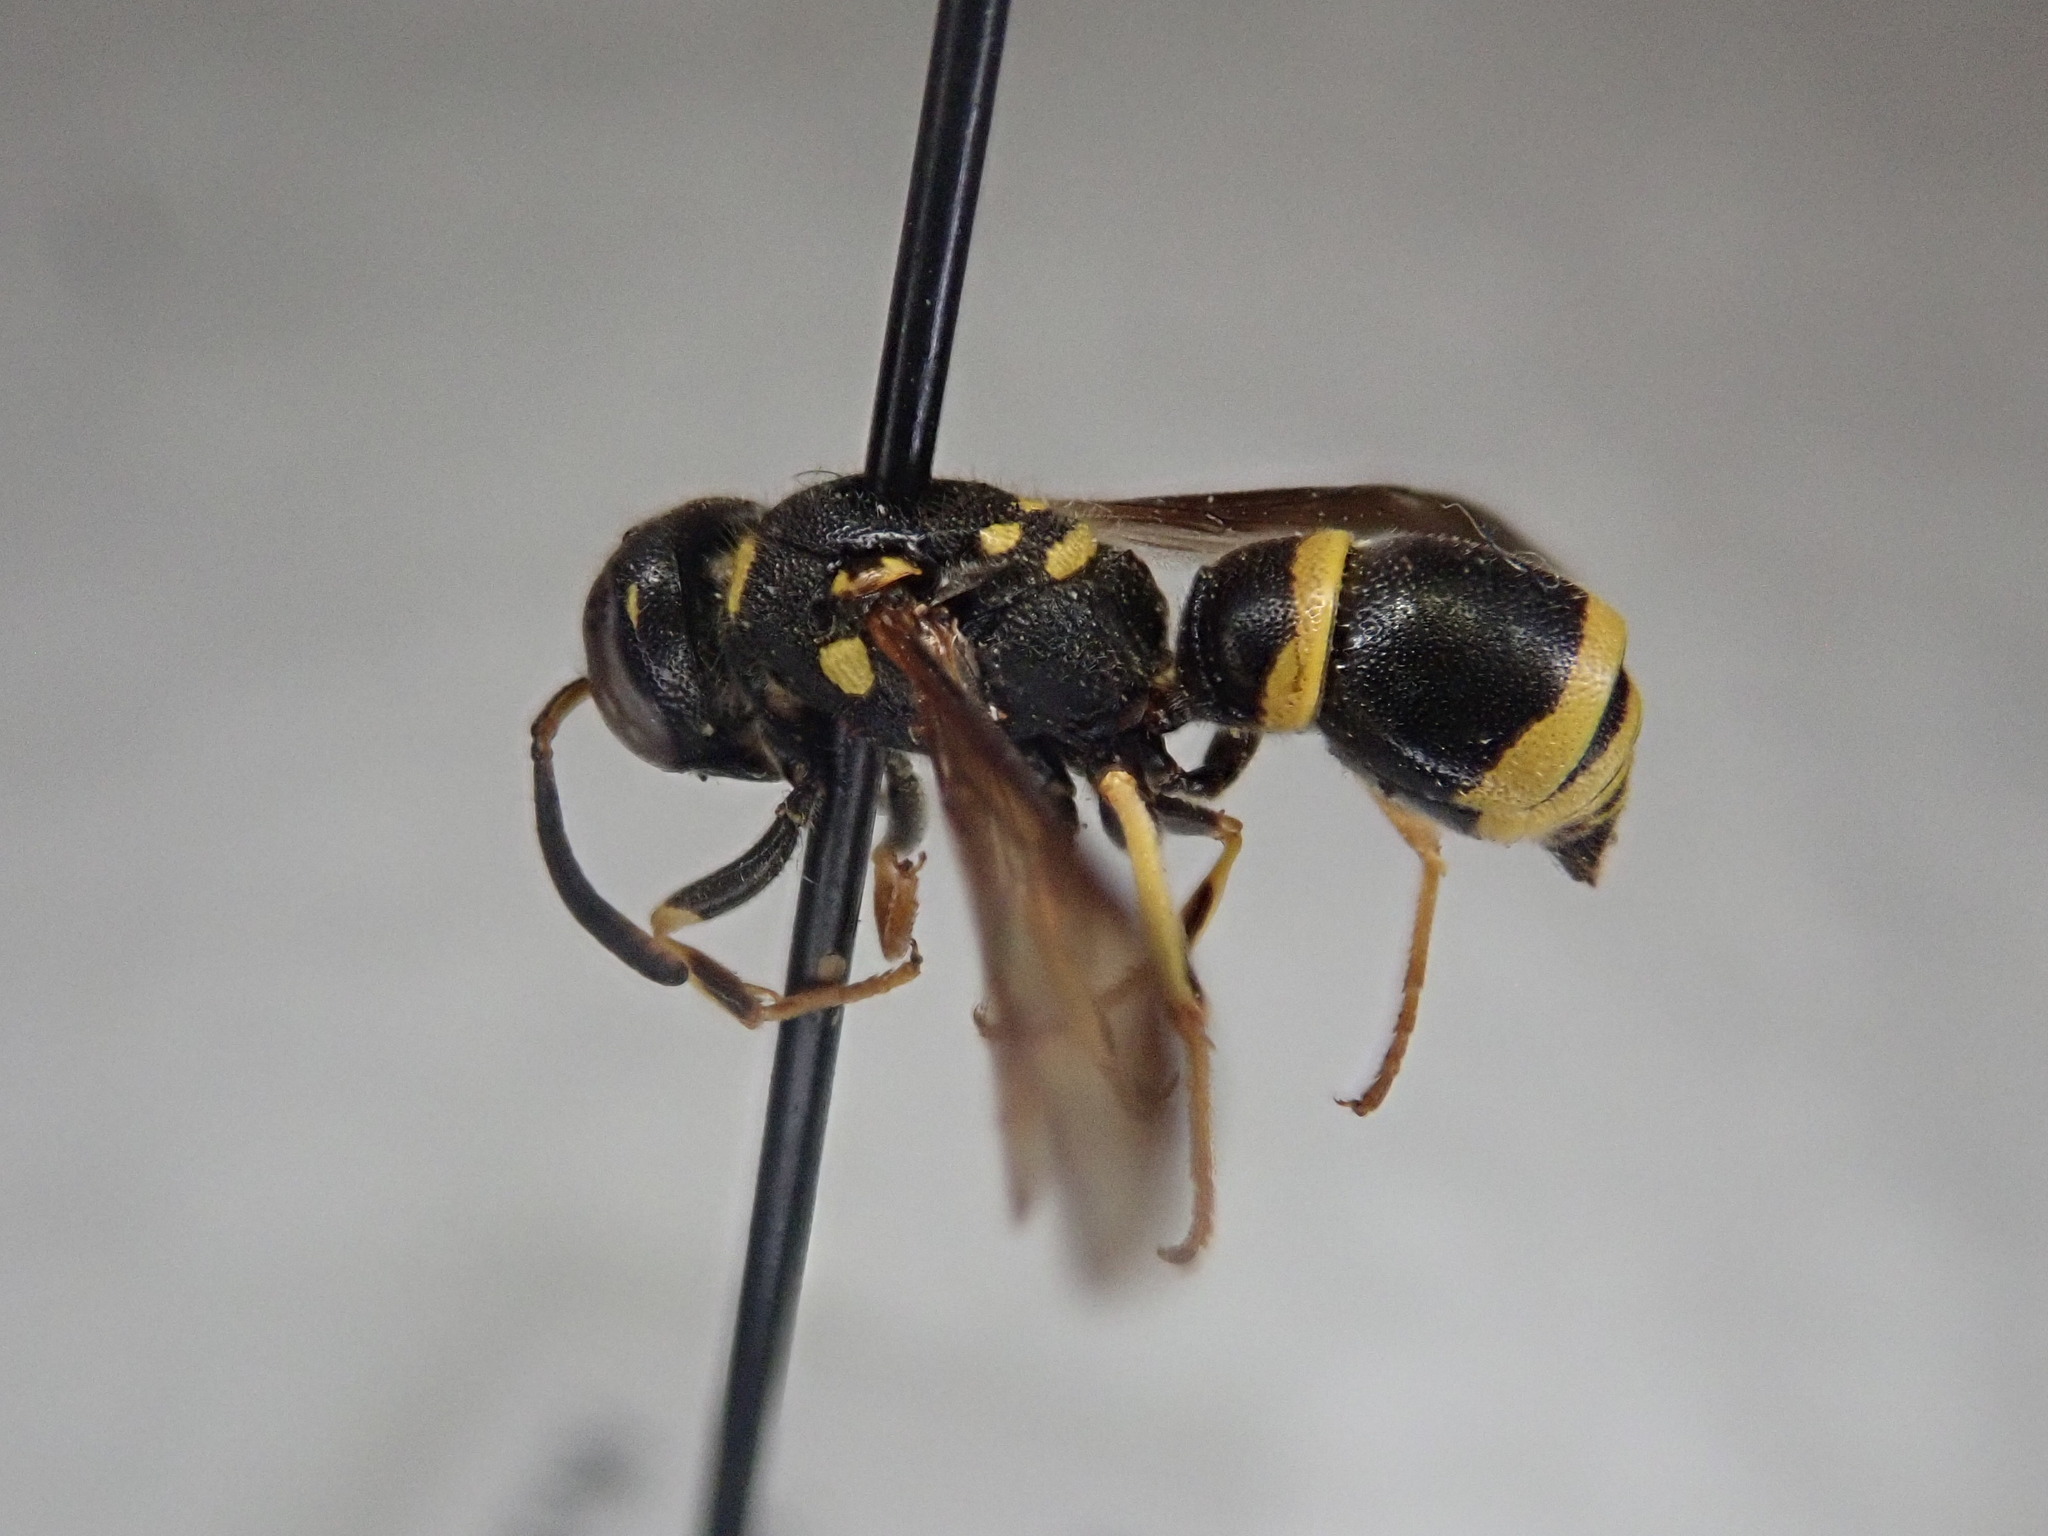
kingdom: Animalia
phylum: Arthropoda
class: Insecta
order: Hymenoptera
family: Vespidae
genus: Ancistrocerus
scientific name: Ancistrocerus adiabatus
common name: Bramble mason wasp
